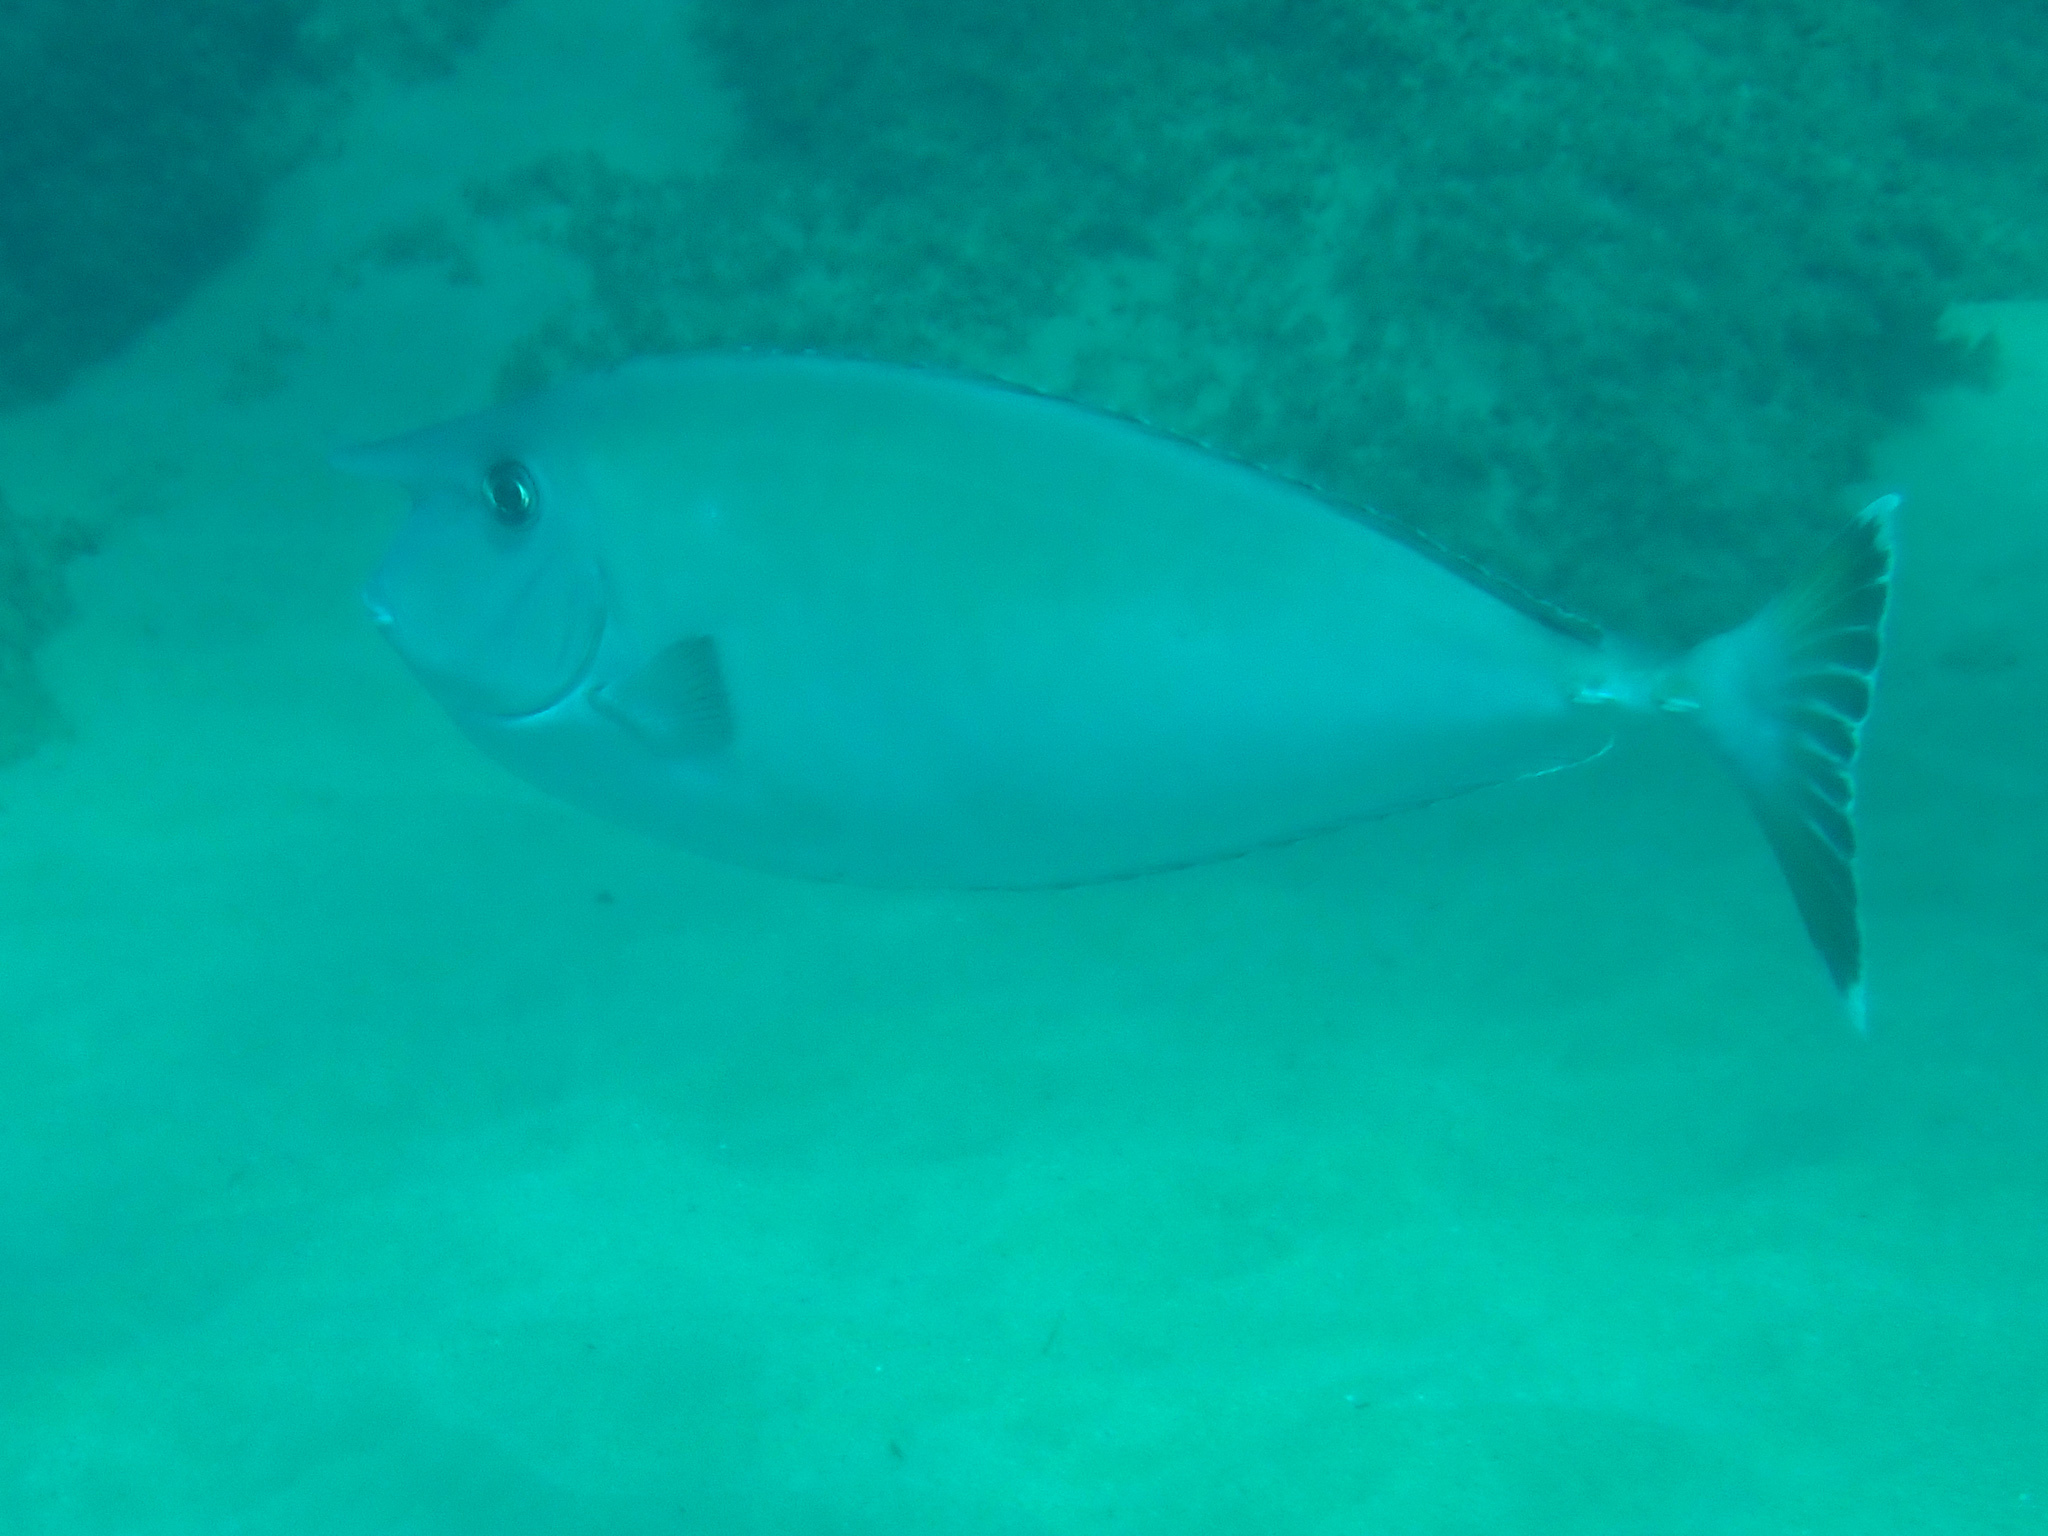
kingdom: Animalia
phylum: Chordata
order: Perciformes
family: Acanthuridae
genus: Naso
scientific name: Naso annulatus
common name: Whitemargin unicornfish
